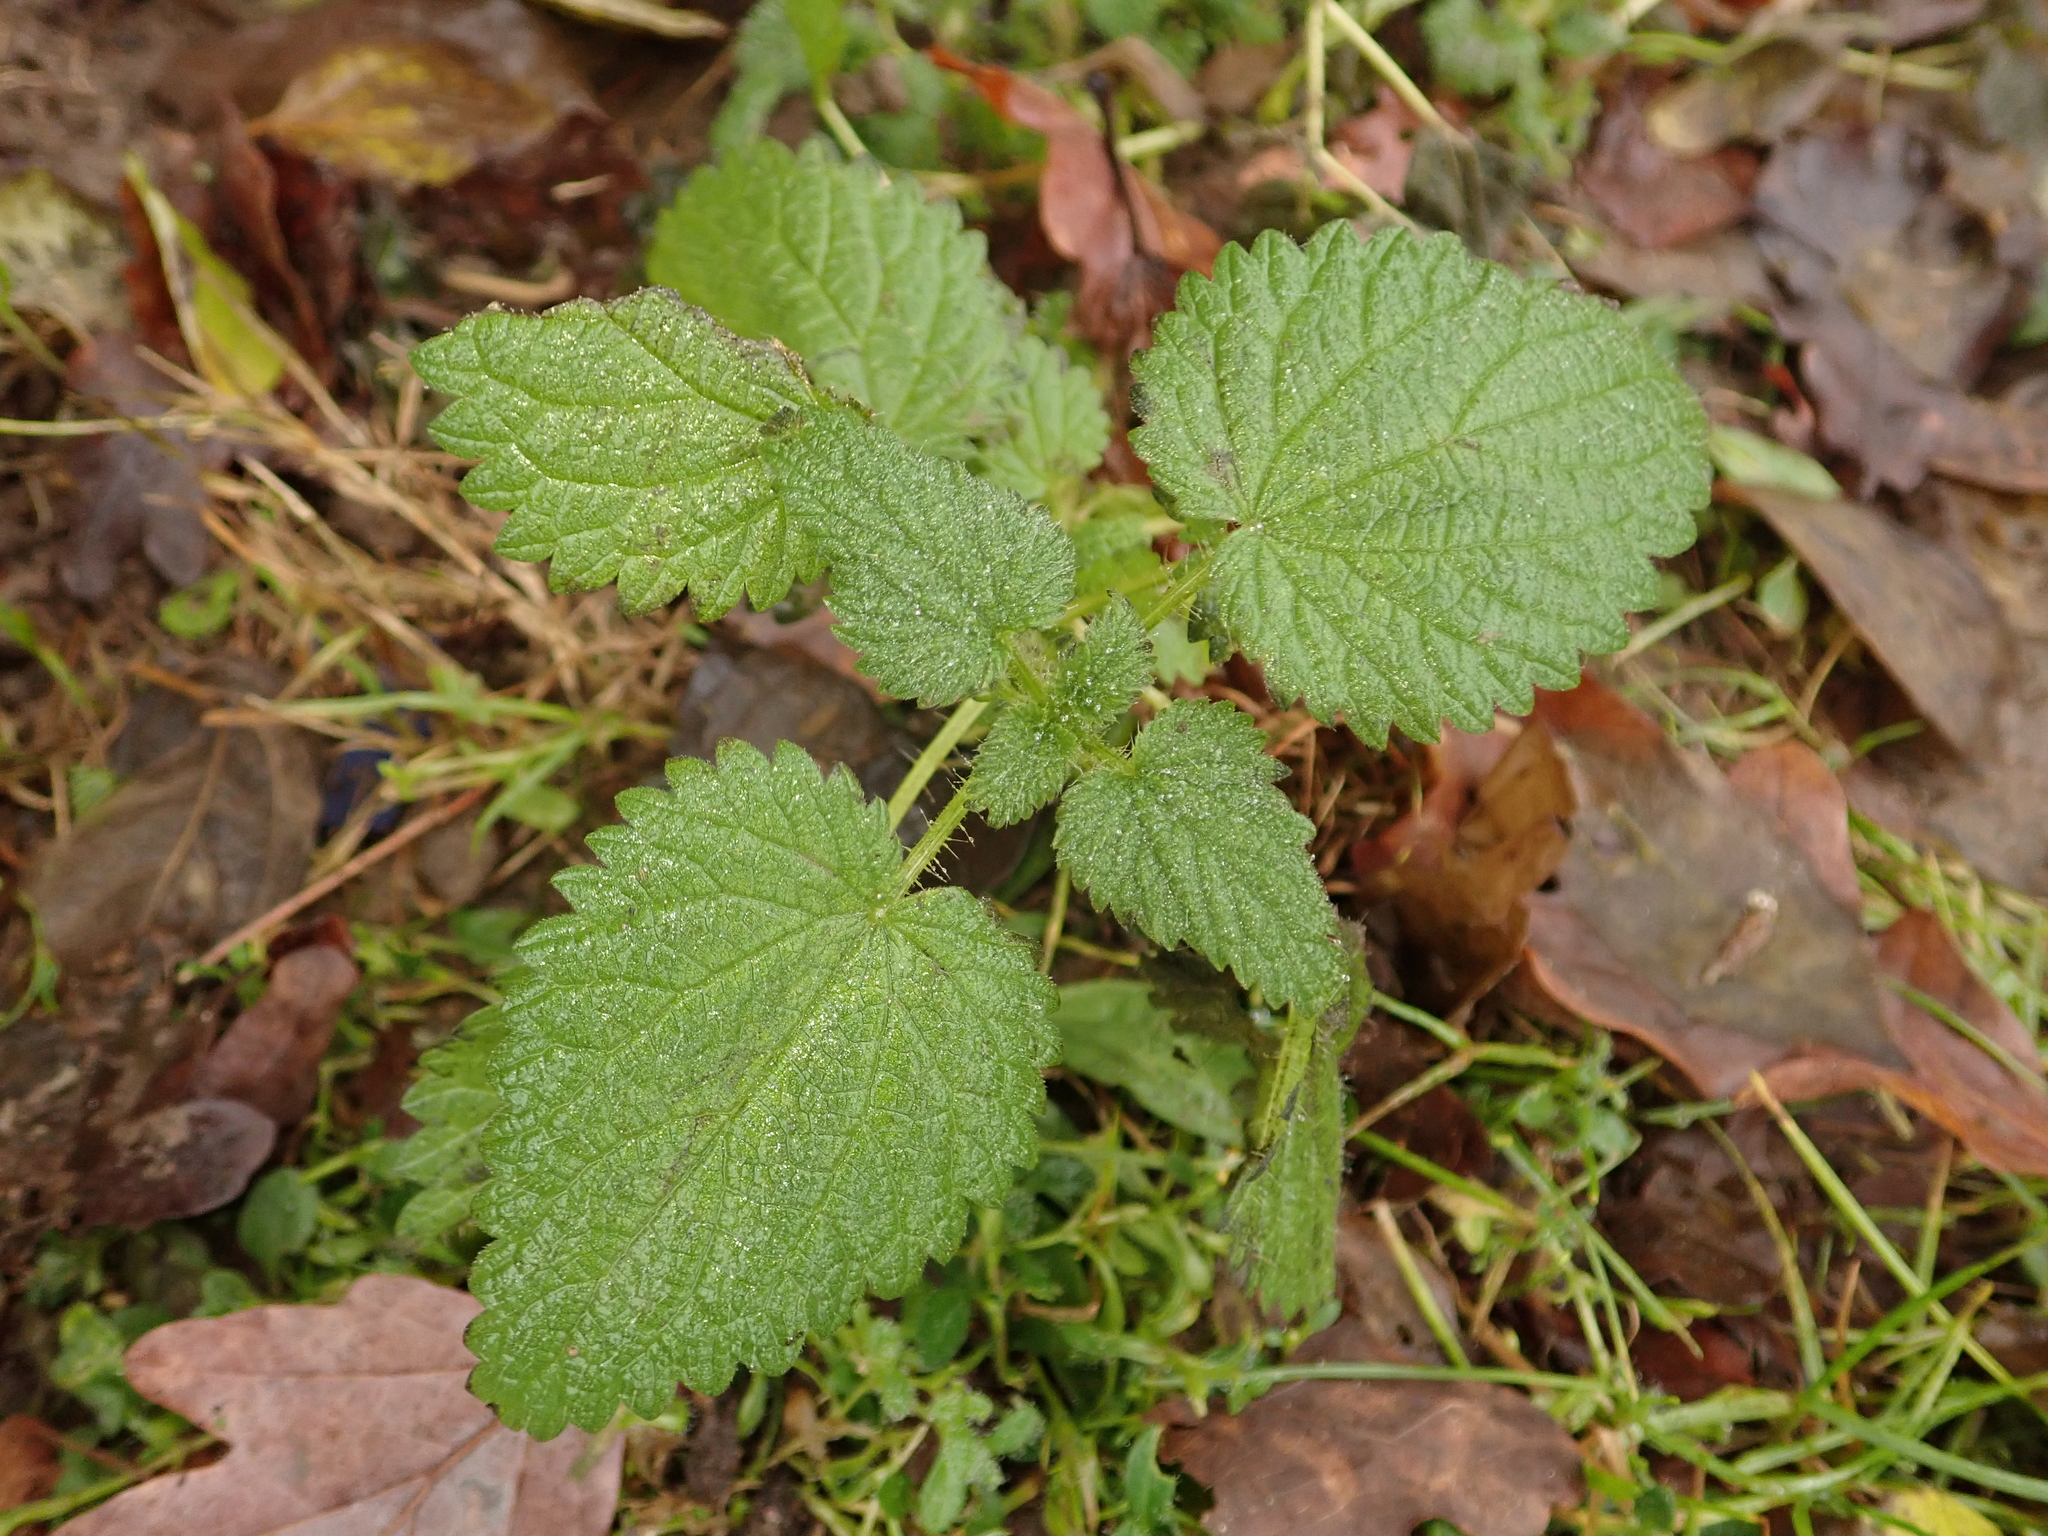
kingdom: Plantae
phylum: Tracheophyta
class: Magnoliopsida
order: Rosales
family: Urticaceae
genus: Urtica
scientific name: Urtica dioica
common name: Common nettle
